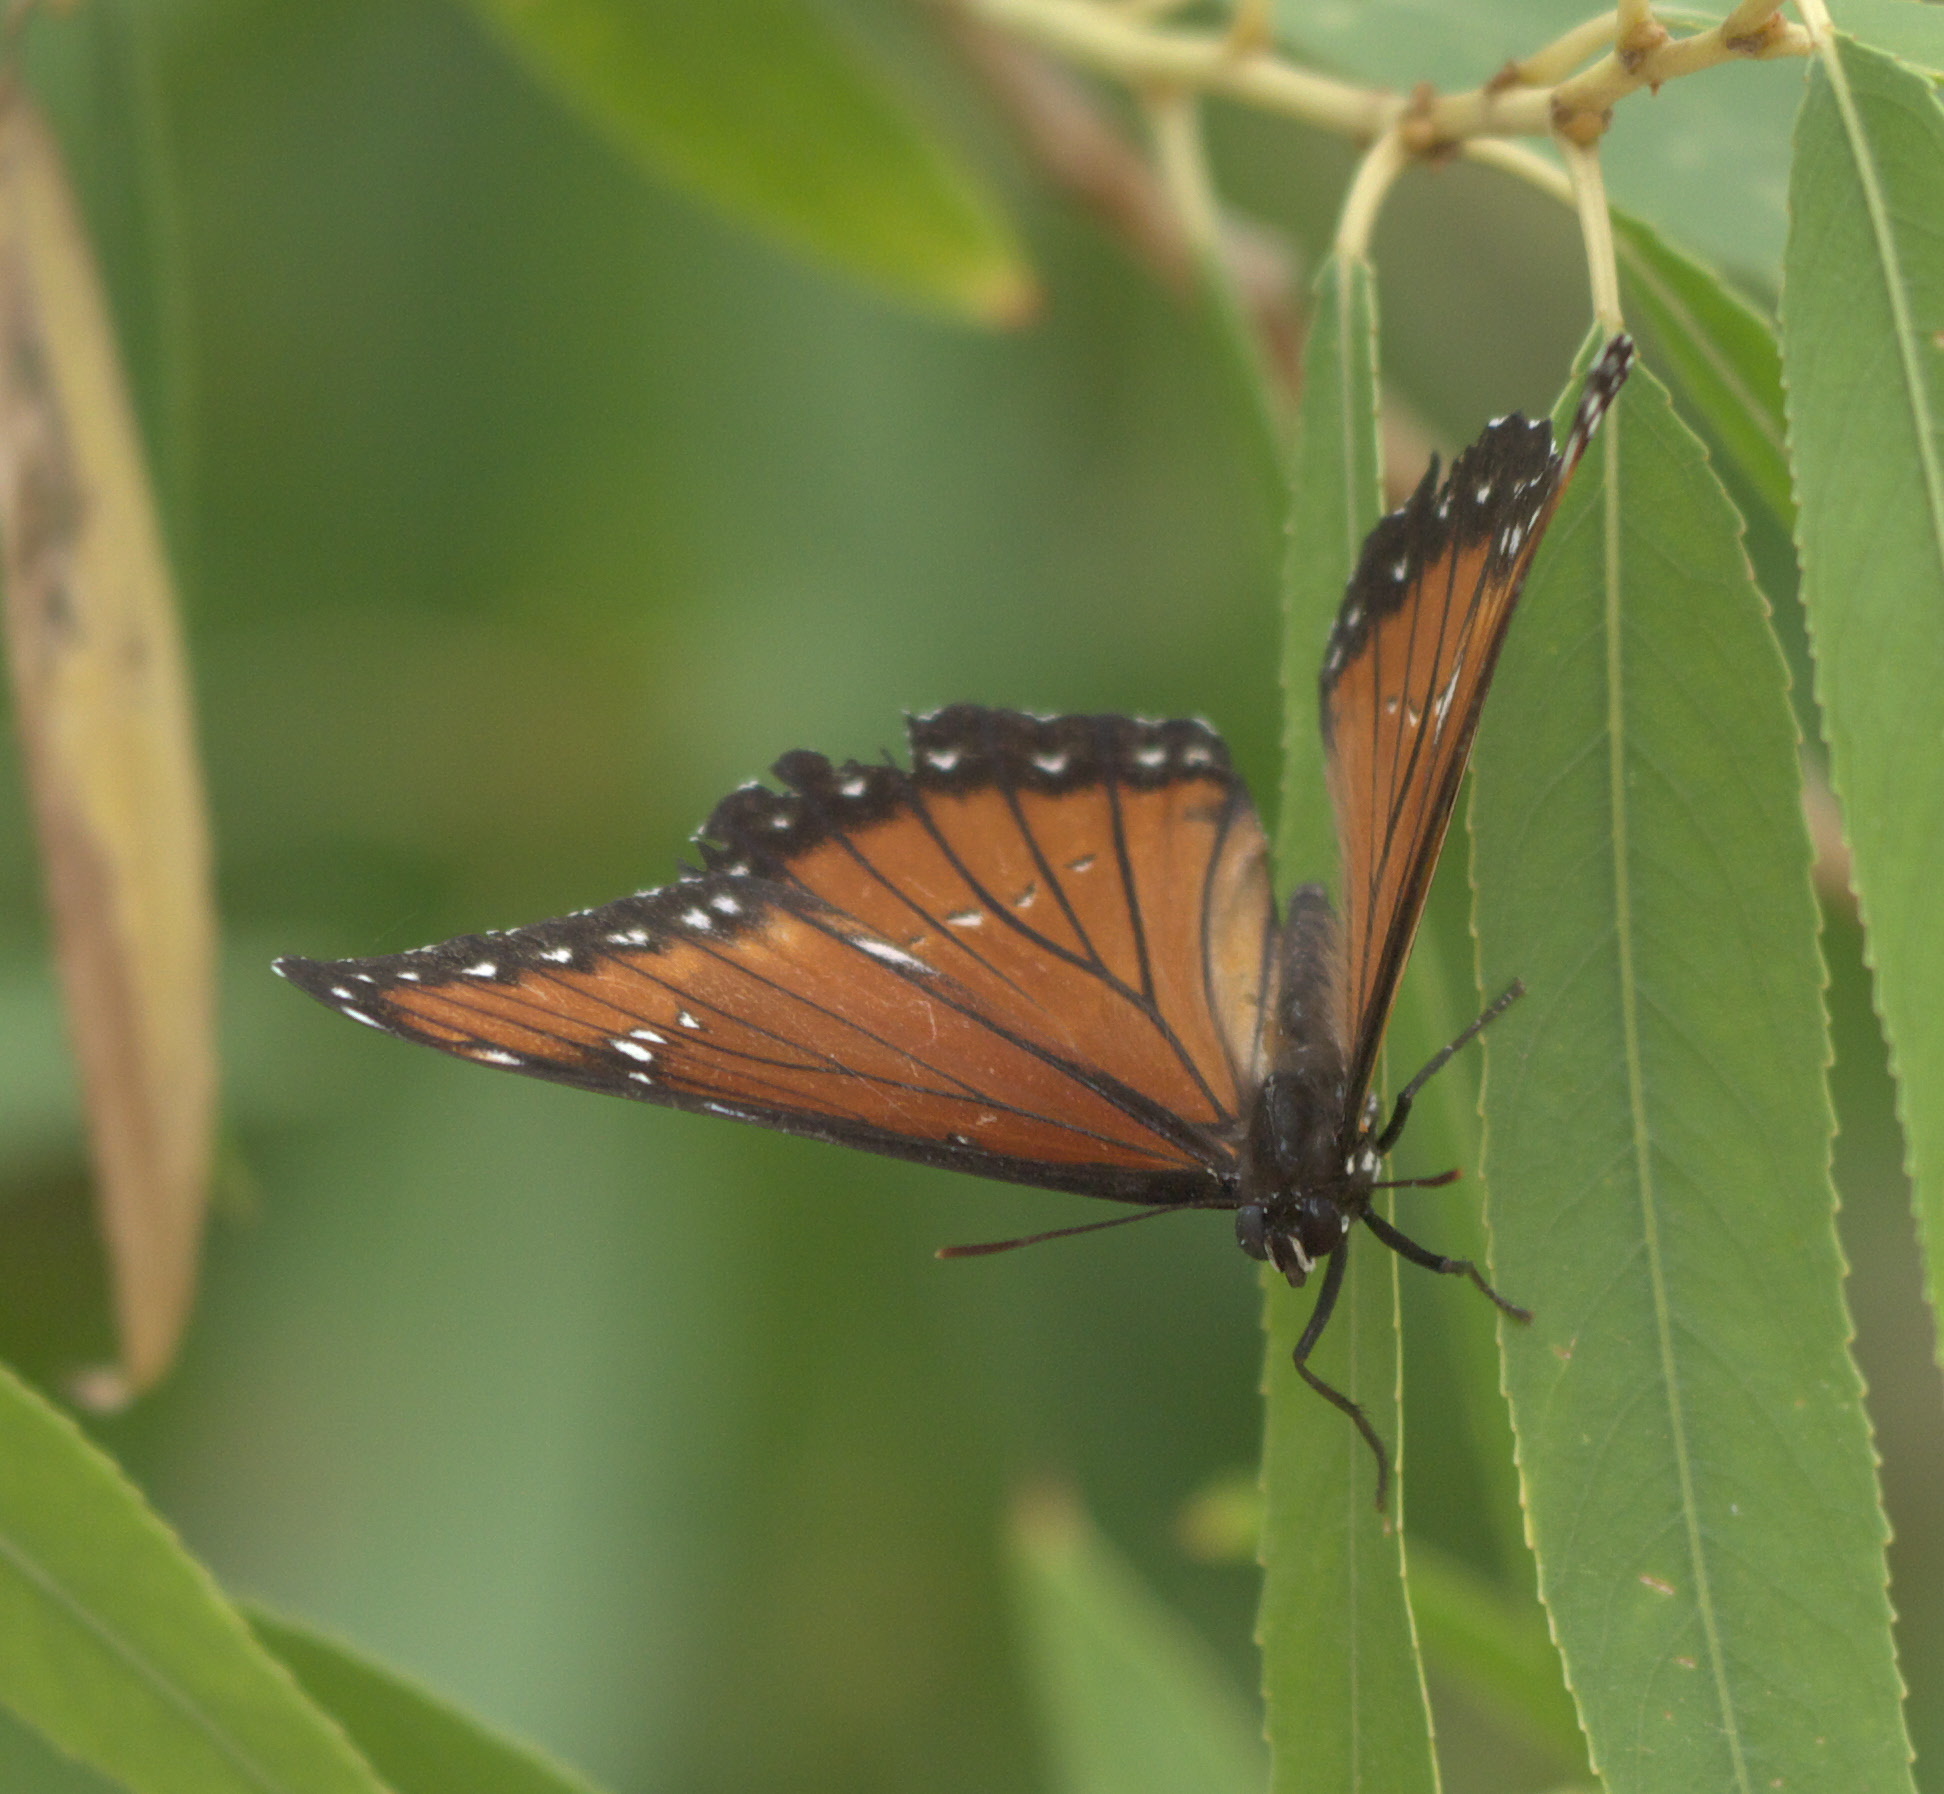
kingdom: Animalia
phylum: Arthropoda
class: Insecta
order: Lepidoptera
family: Nymphalidae
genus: Limenitis
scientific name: Limenitis archippus
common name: Viceroy
